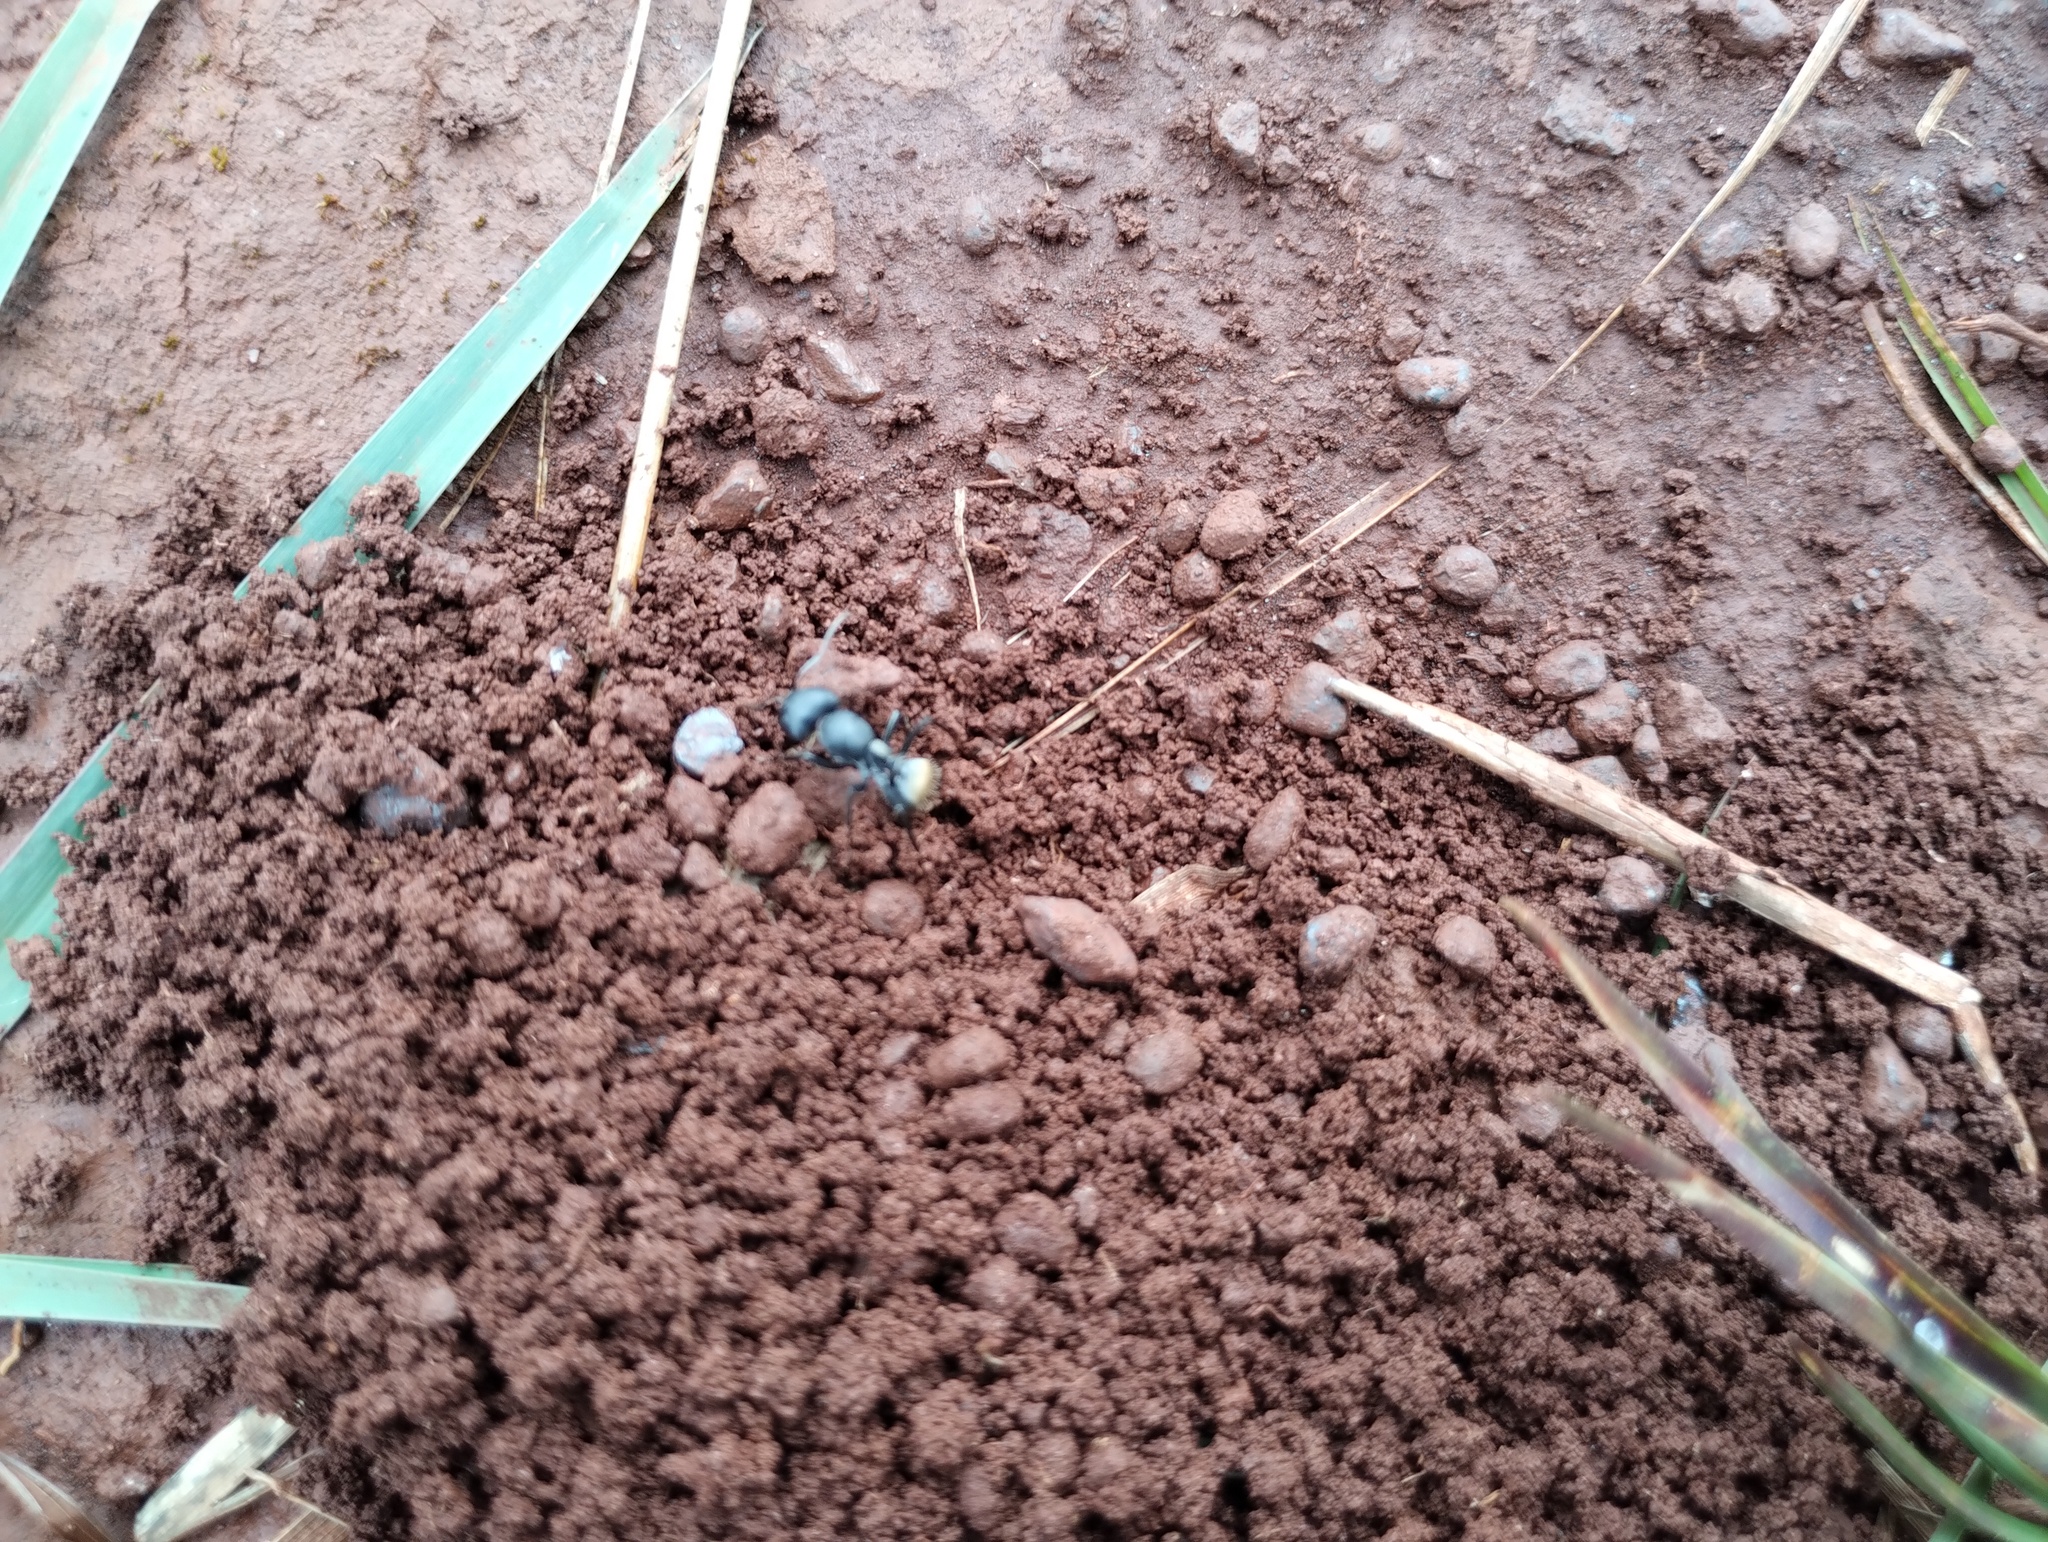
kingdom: Animalia
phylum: Arthropoda
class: Insecta
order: Hymenoptera
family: Formicidae
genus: Camponotus
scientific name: Camponotus sericeus
